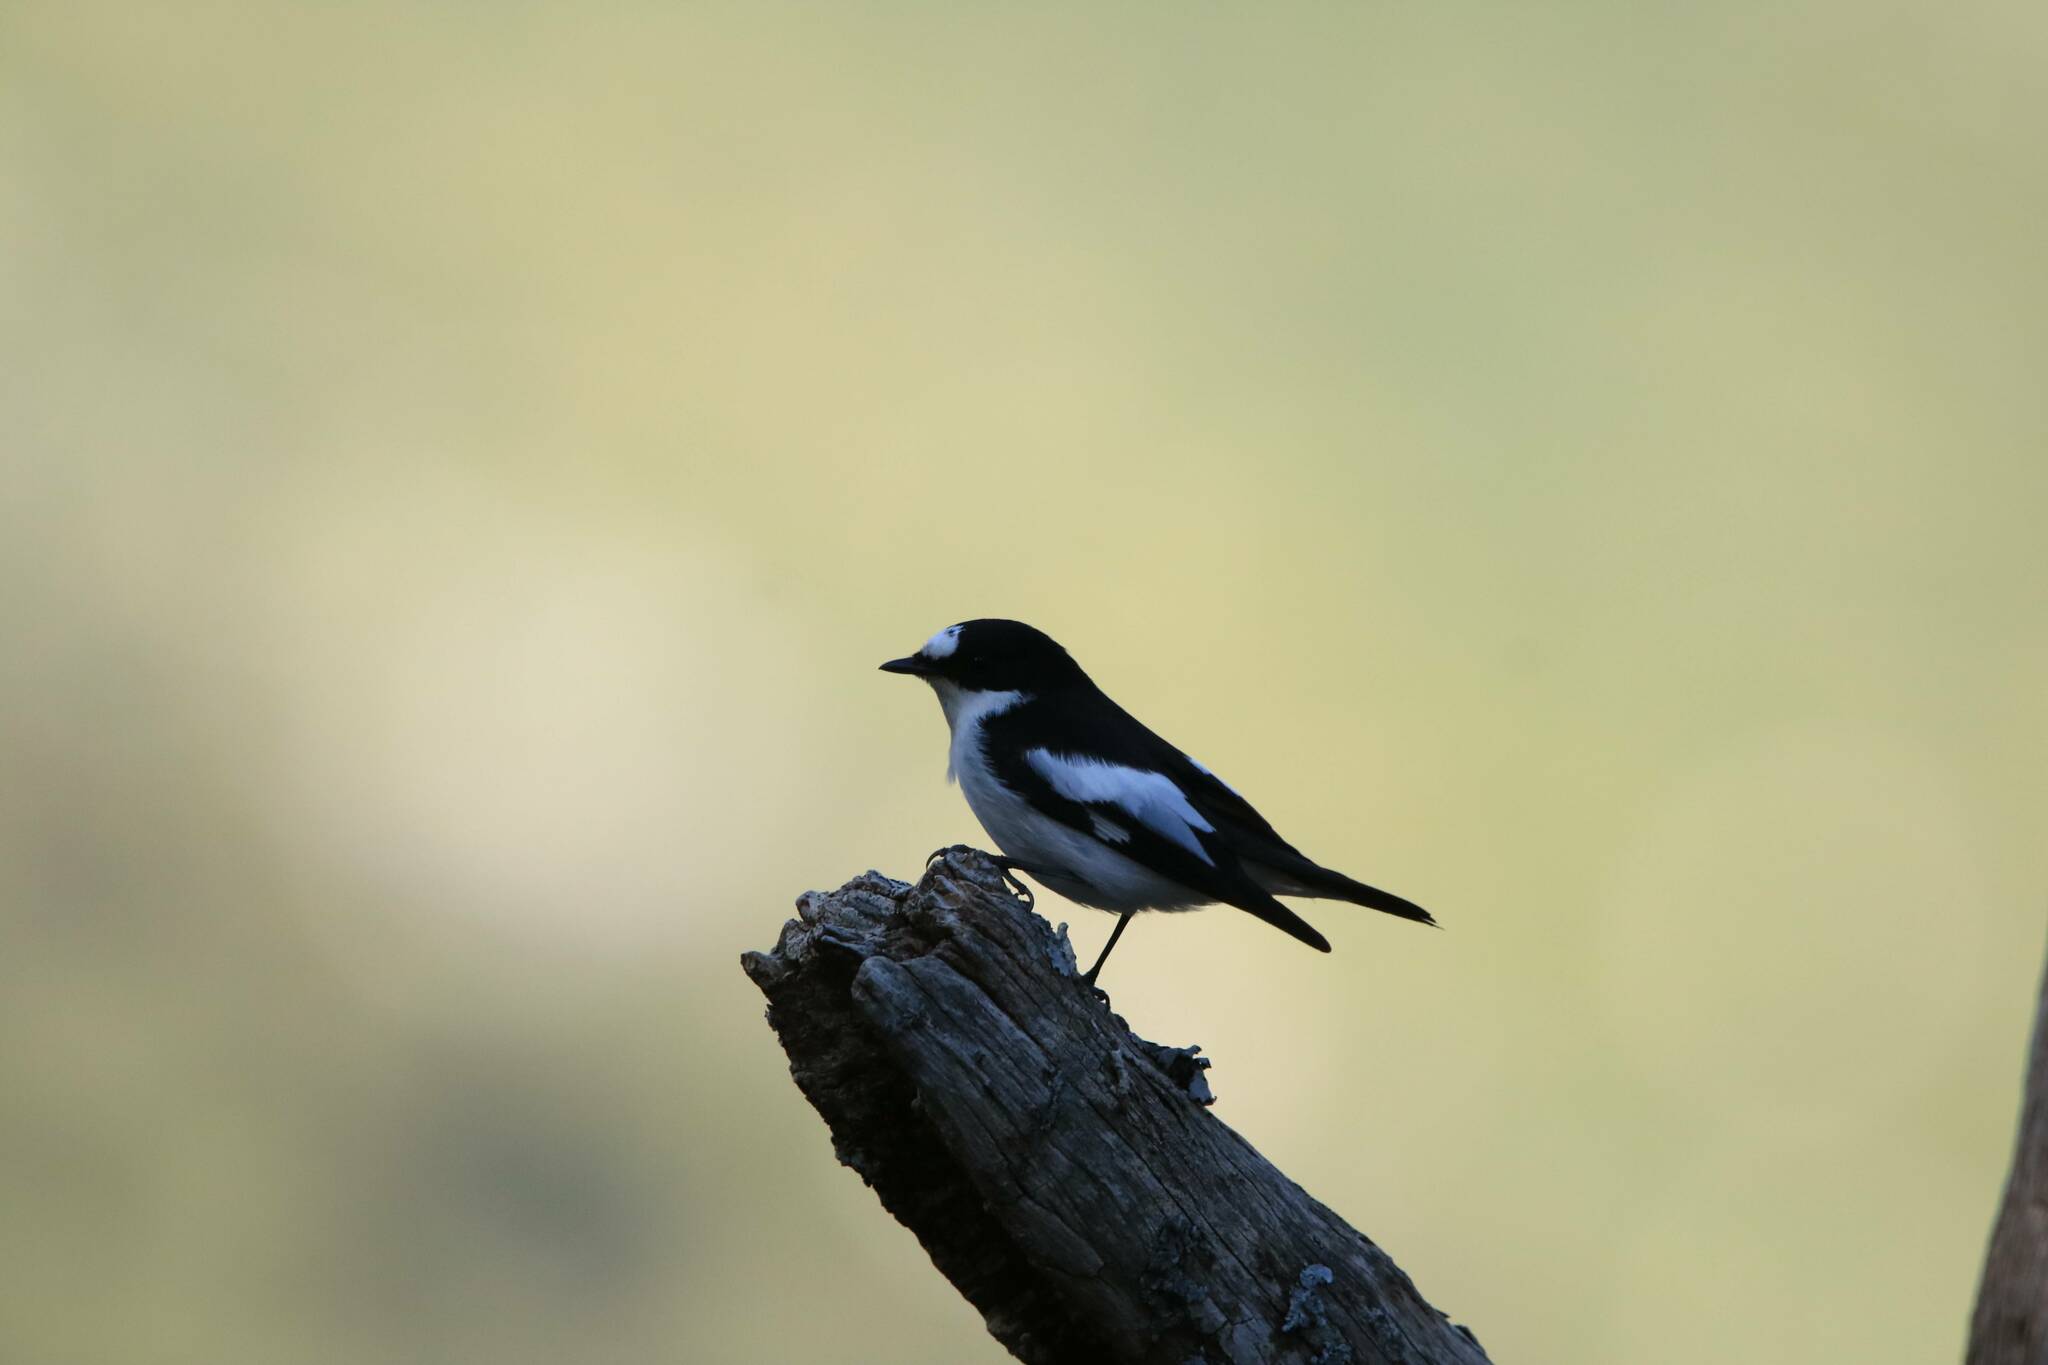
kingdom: Animalia
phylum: Chordata
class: Aves
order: Passeriformes
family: Muscicapidae
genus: Ficedula
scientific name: Ficedula speculigera
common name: Atlas pied flycatcher
